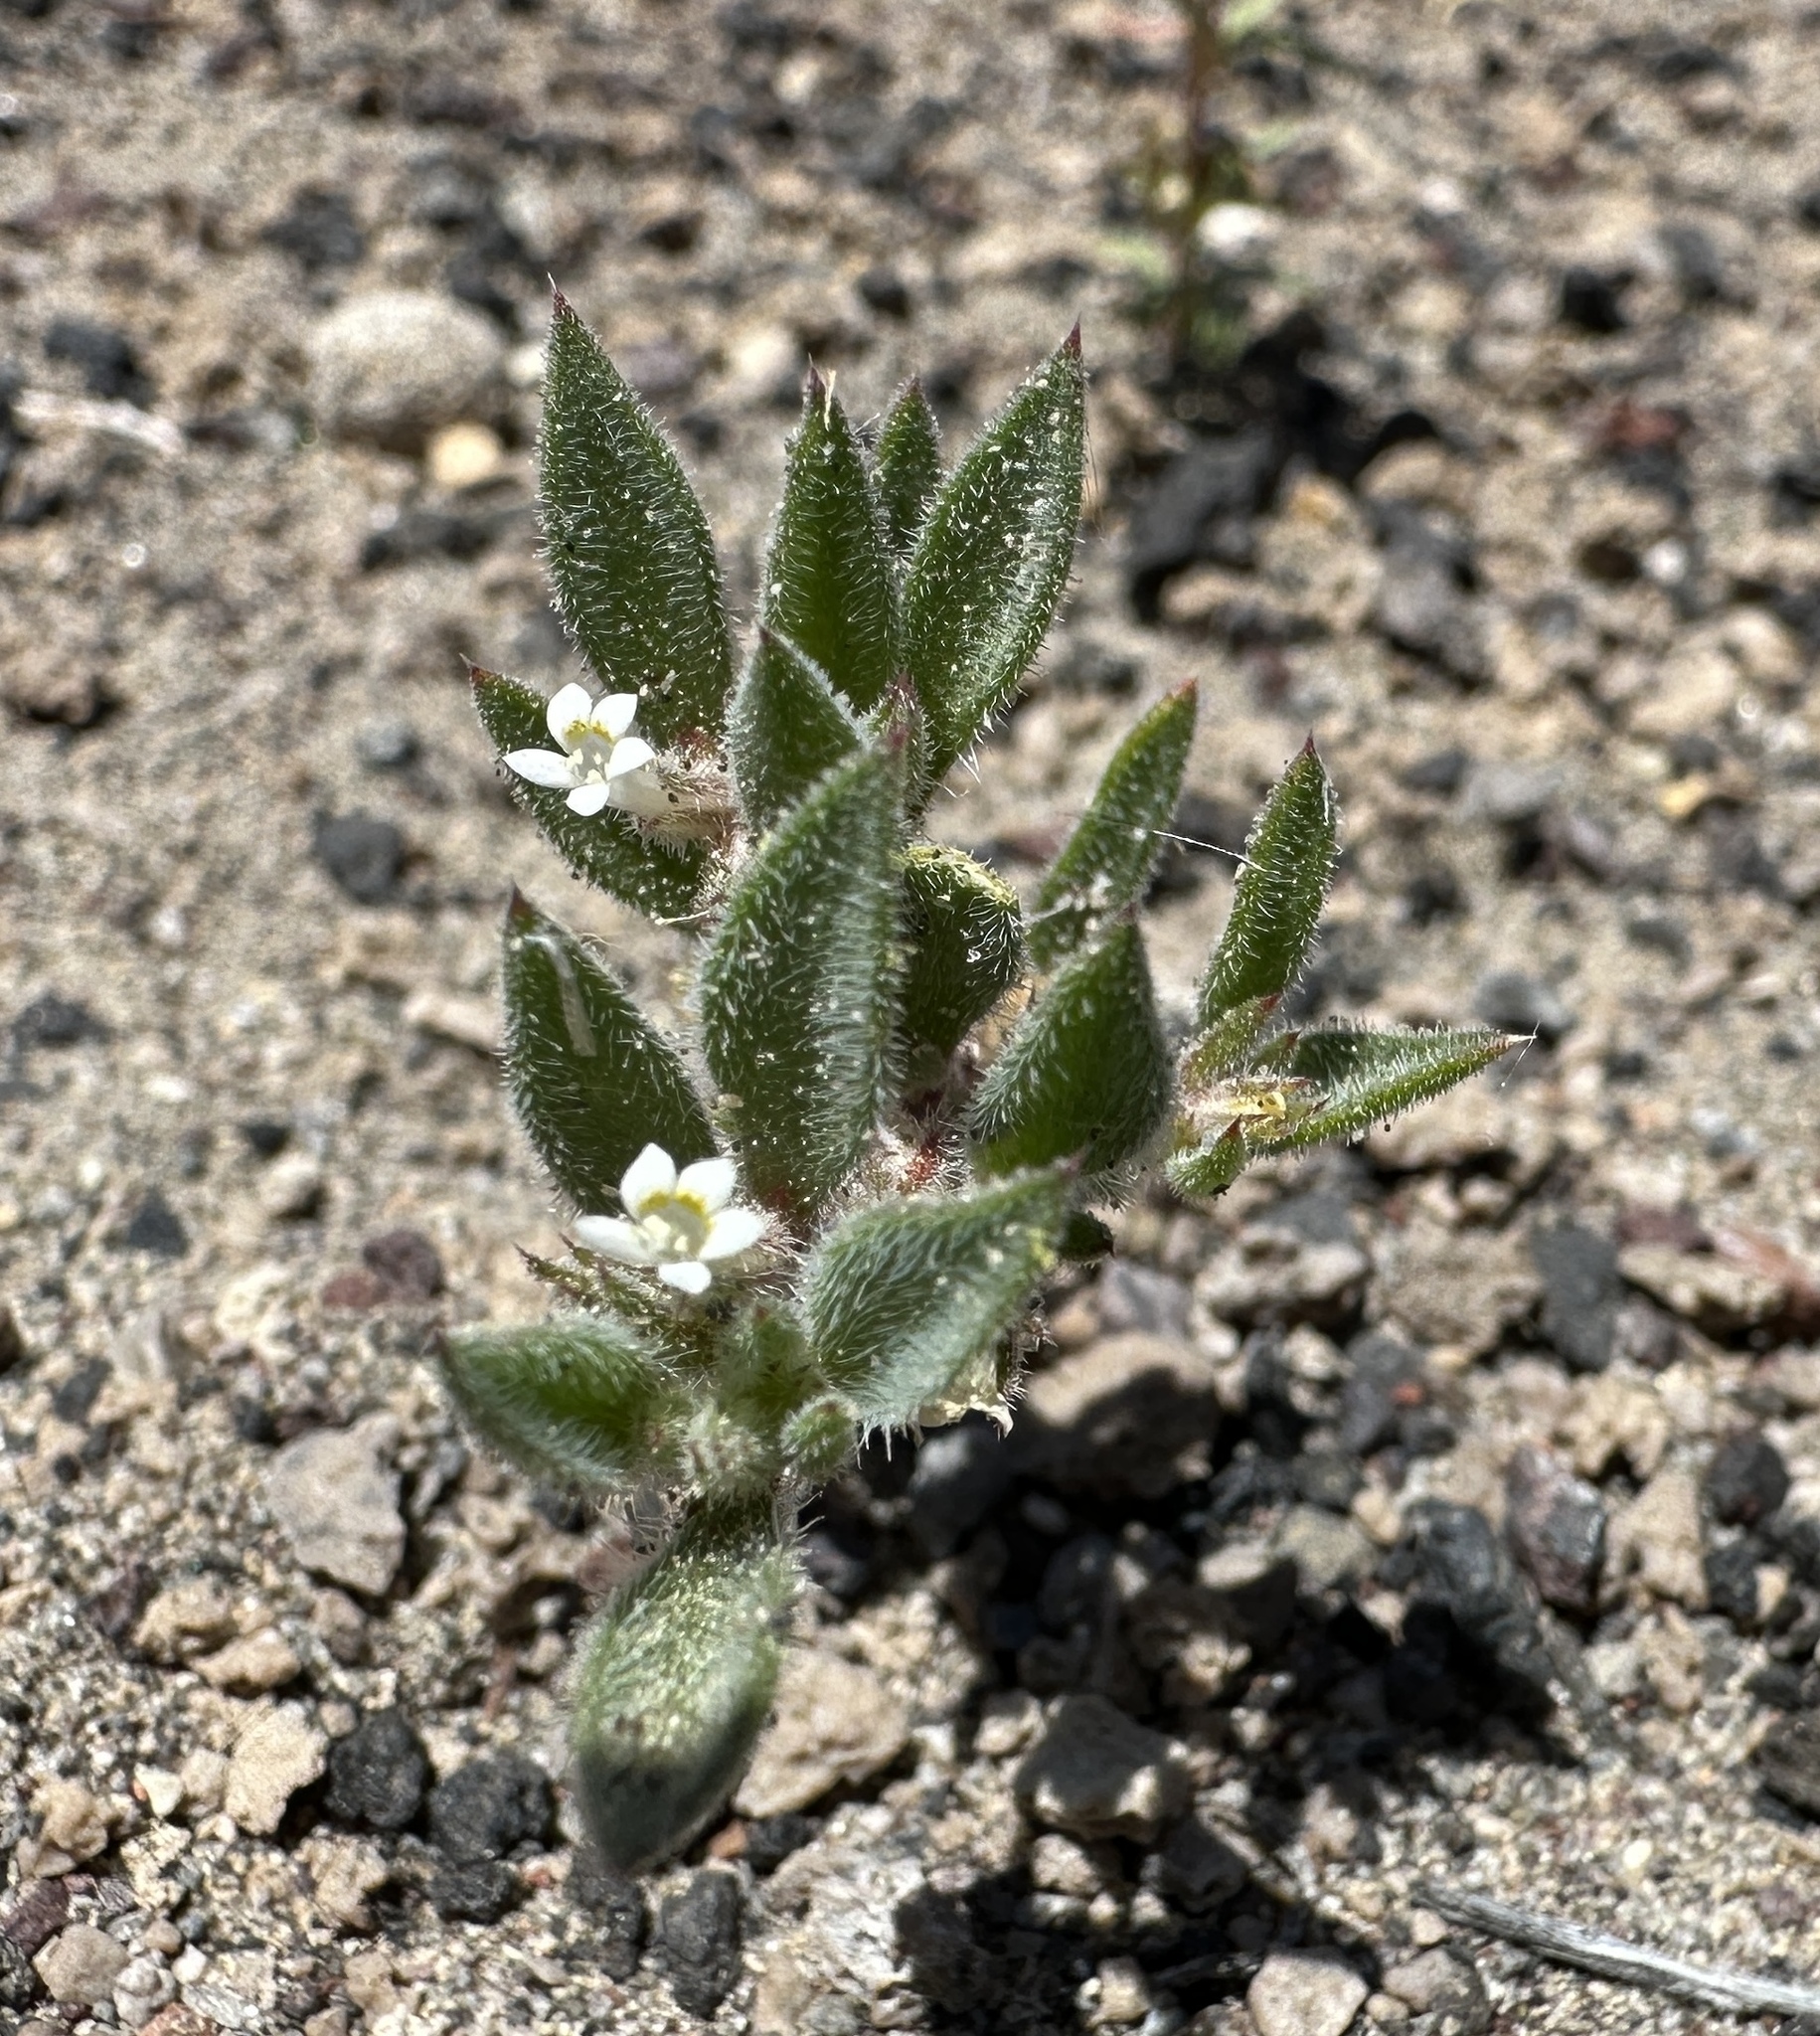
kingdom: Plantae
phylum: Tracheophyta
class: Magnoliopsida
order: Ericales
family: Polemoniaceae
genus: Loeseliastrum
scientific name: Loeseliastrum depressum
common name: Depressed ipomopsis
